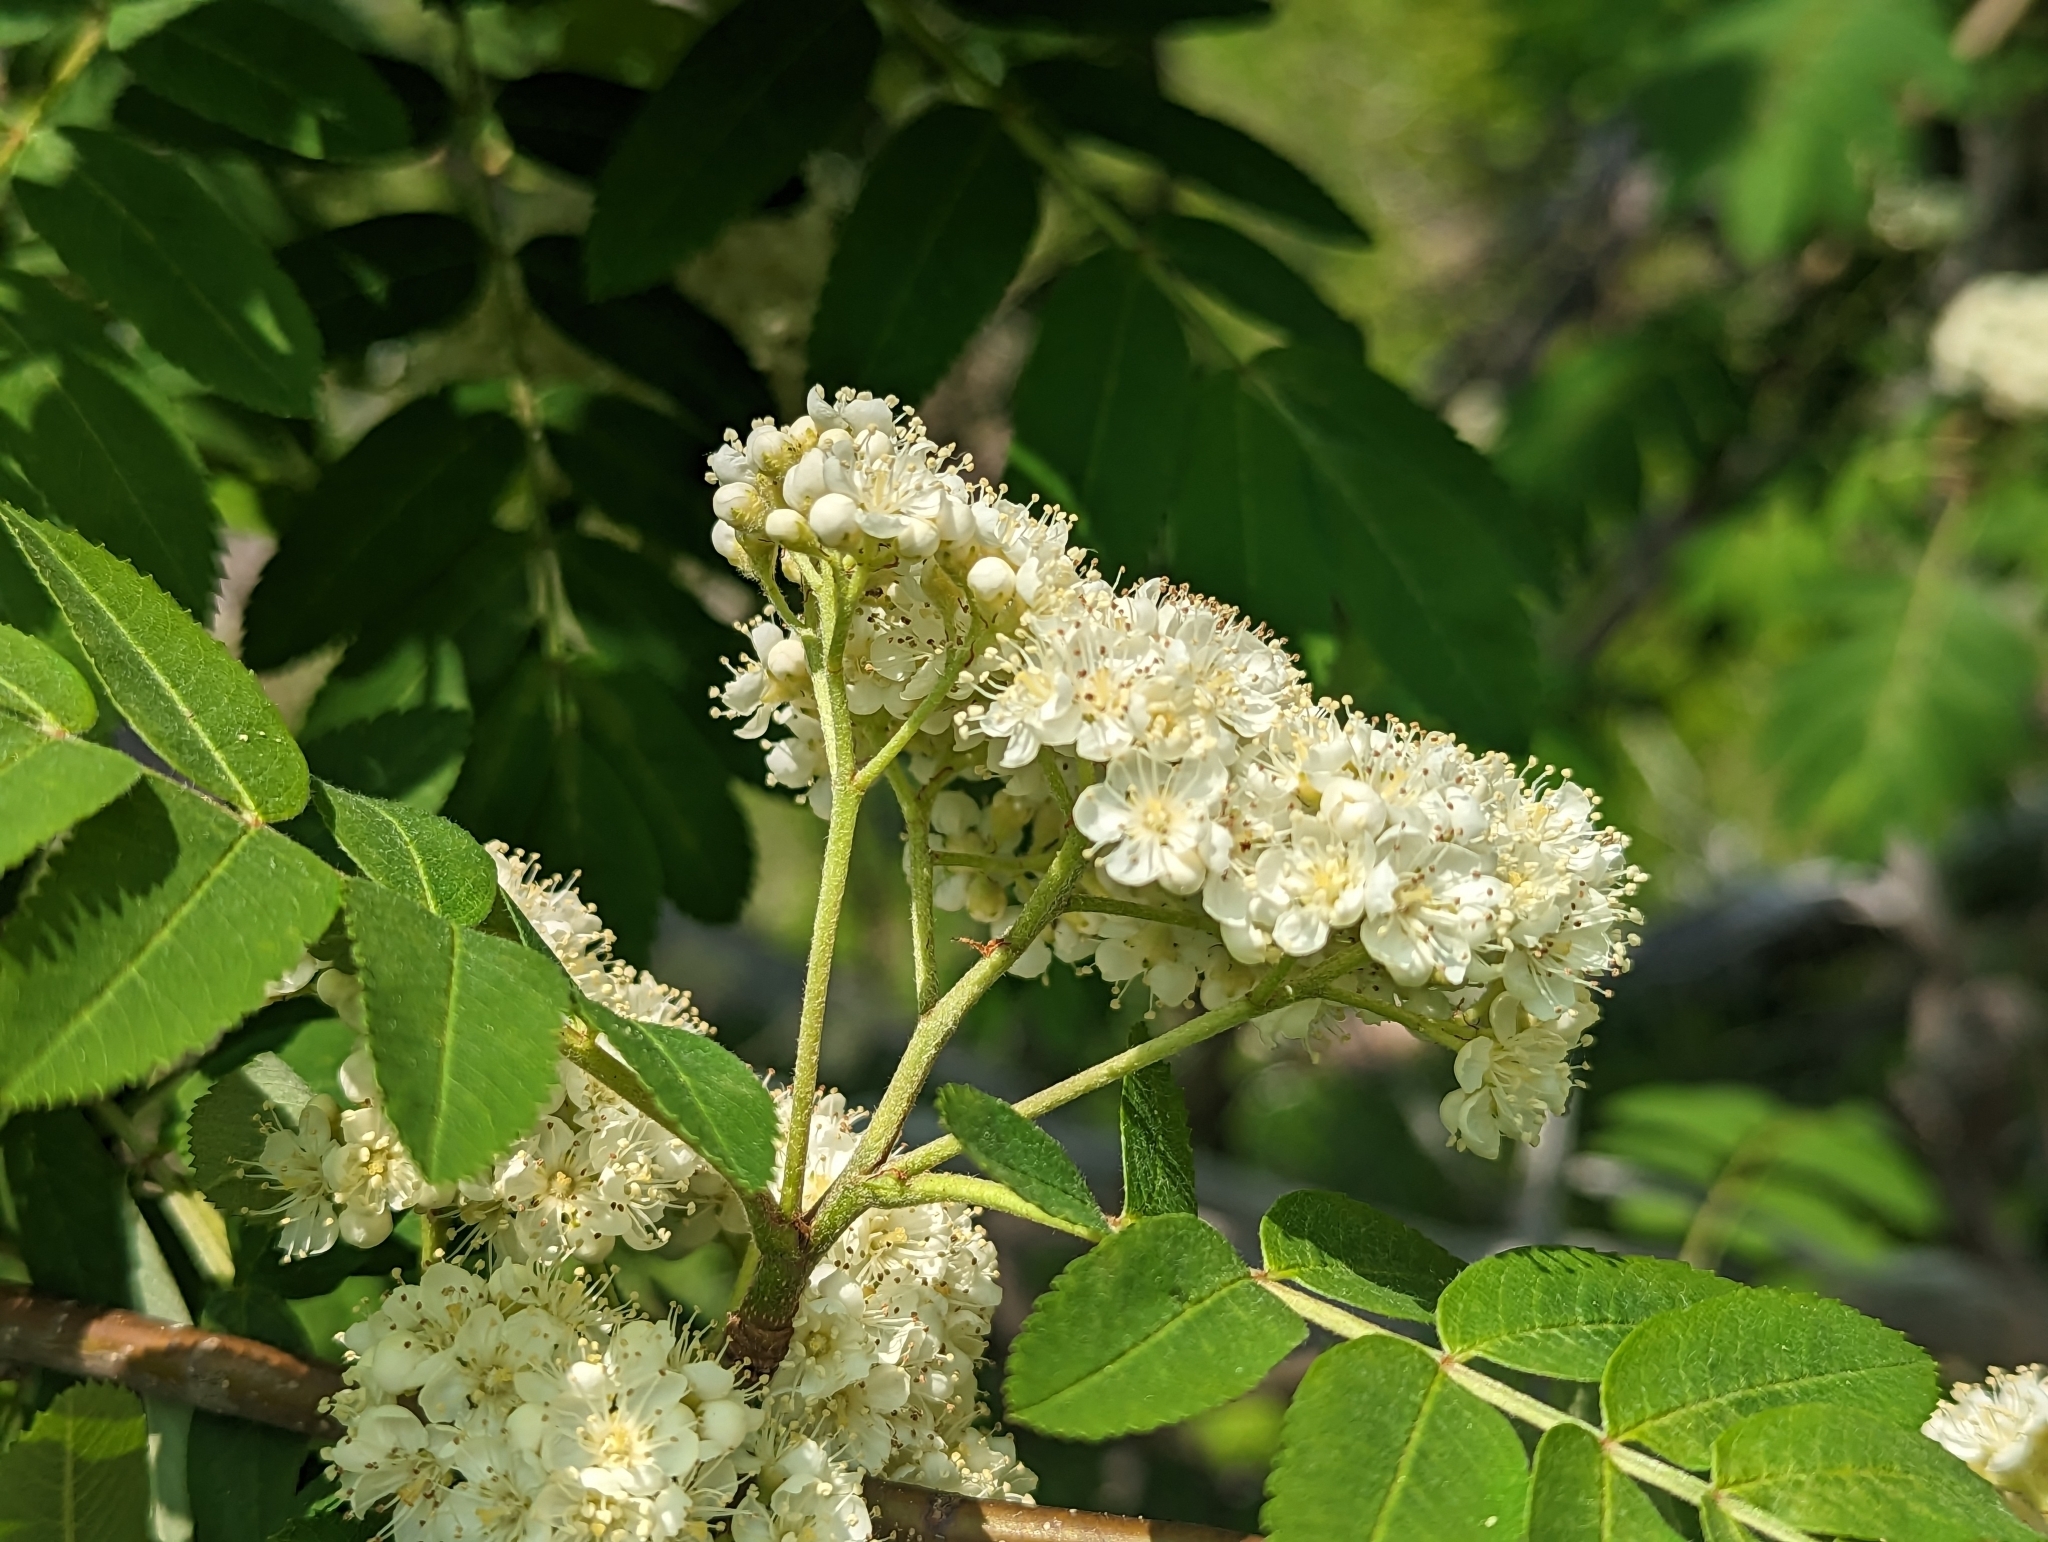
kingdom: Plantae
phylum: Tracheophyta
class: Magnoliopsida
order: Rosales
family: Rosaceae
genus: Sorbus
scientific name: Sorbus aucuparia
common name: Rowan
